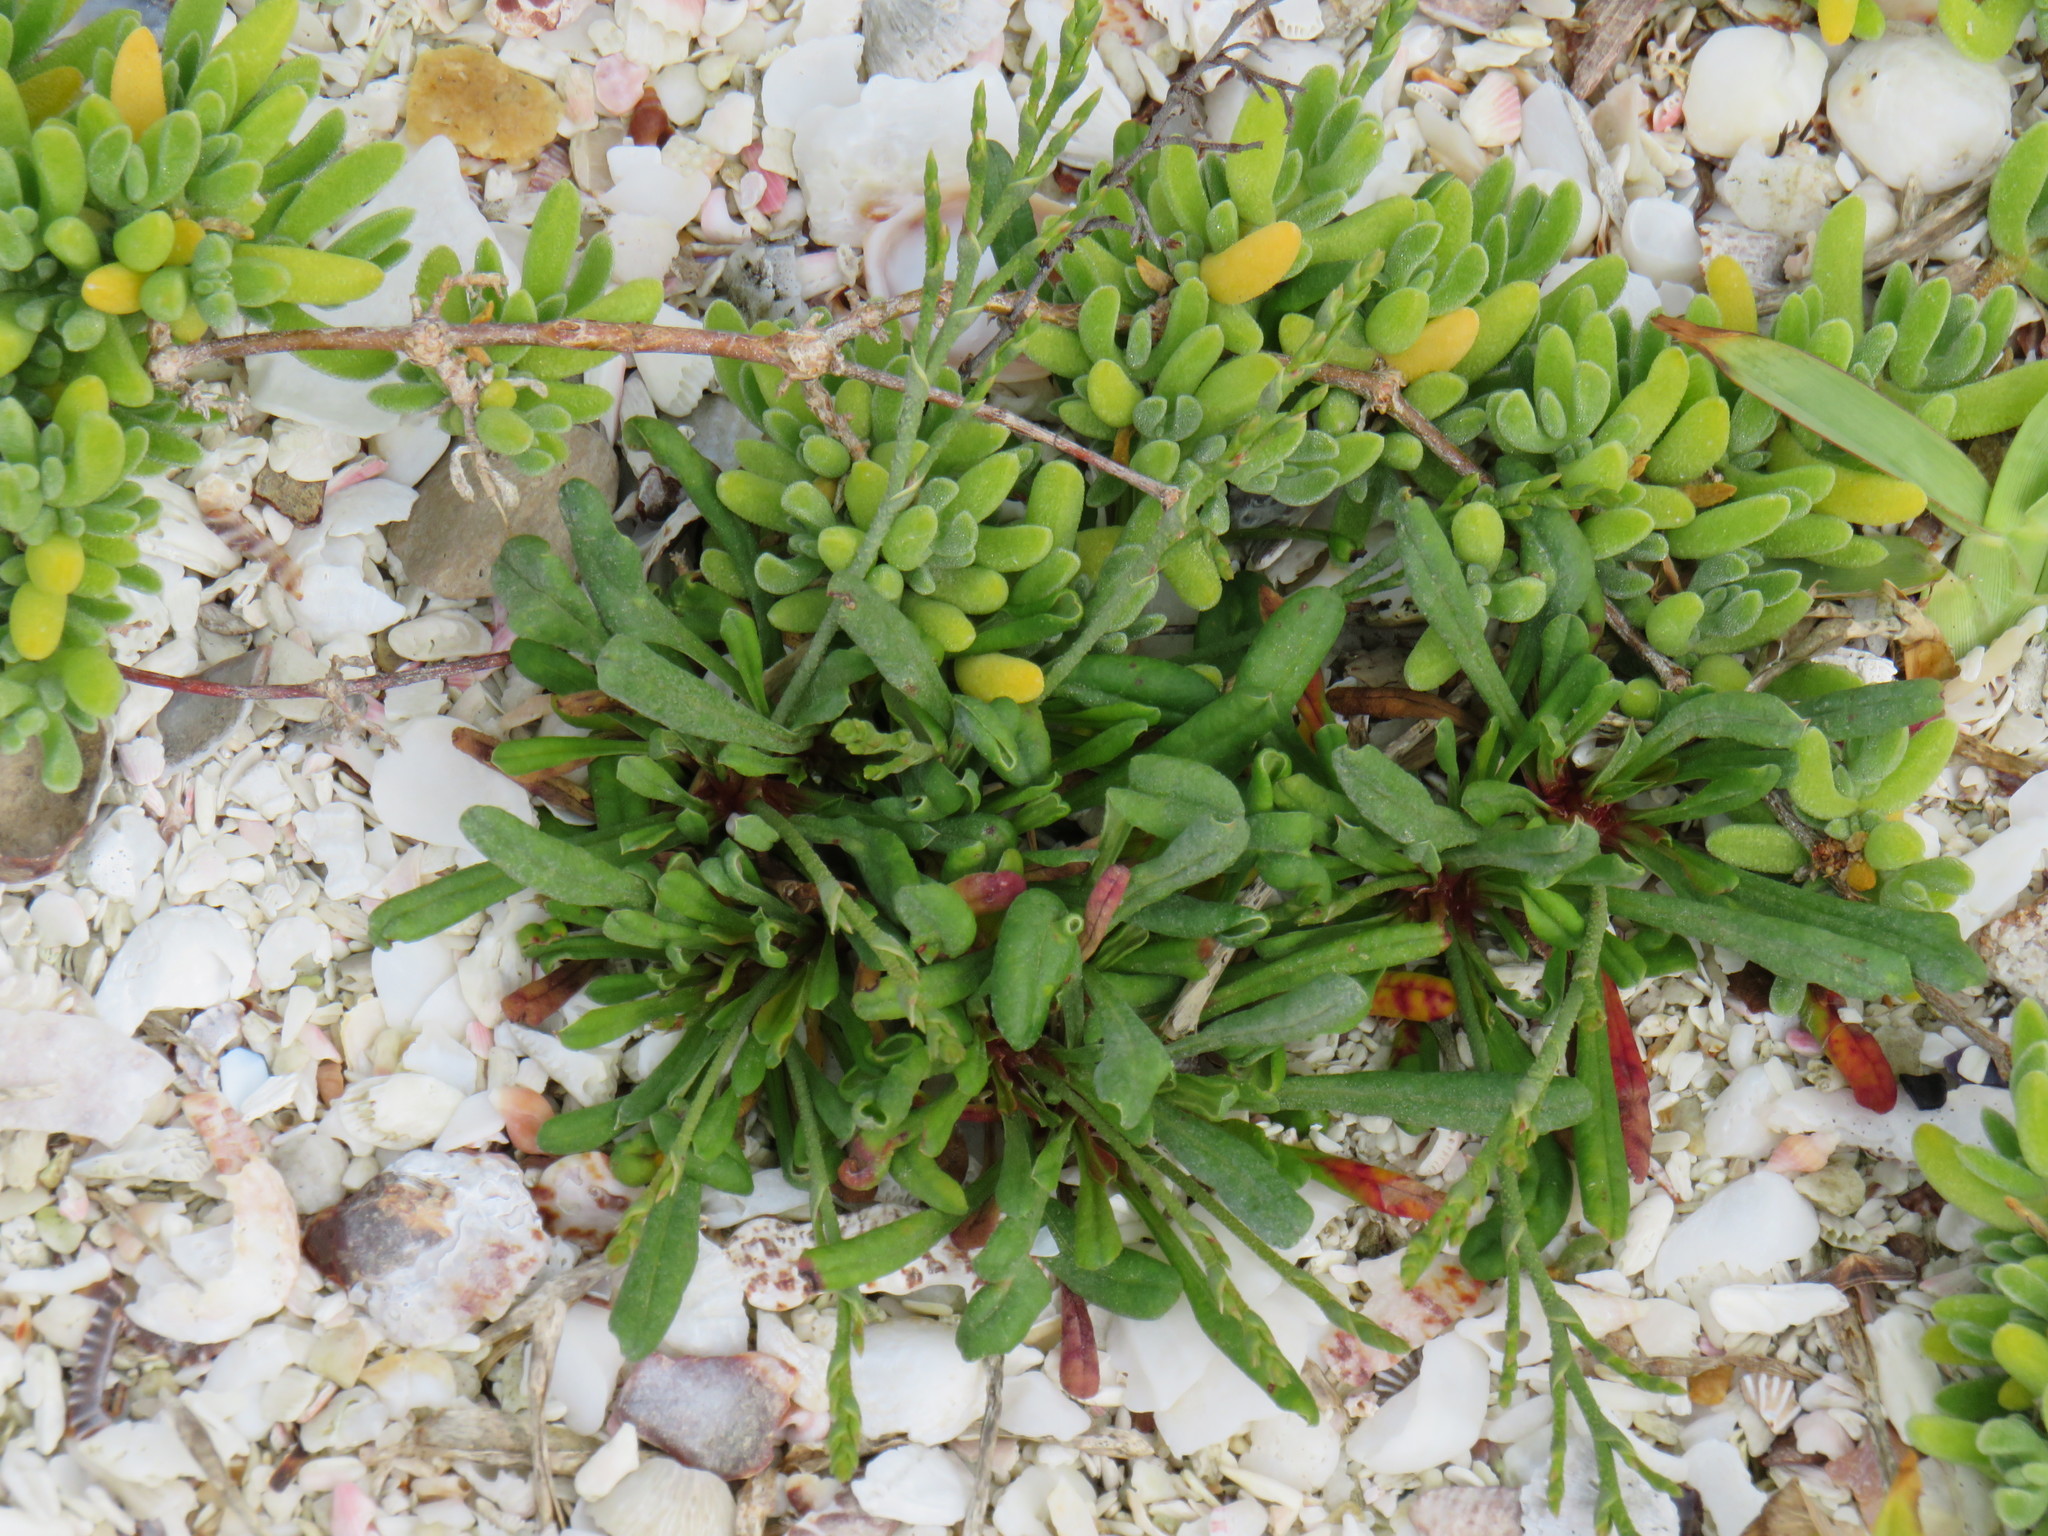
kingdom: Plantae
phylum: Tracheophyta
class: Magnoliopsida
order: Caryophyllales
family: Plumbaginaceae
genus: Limonium
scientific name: Limonium scabrum
